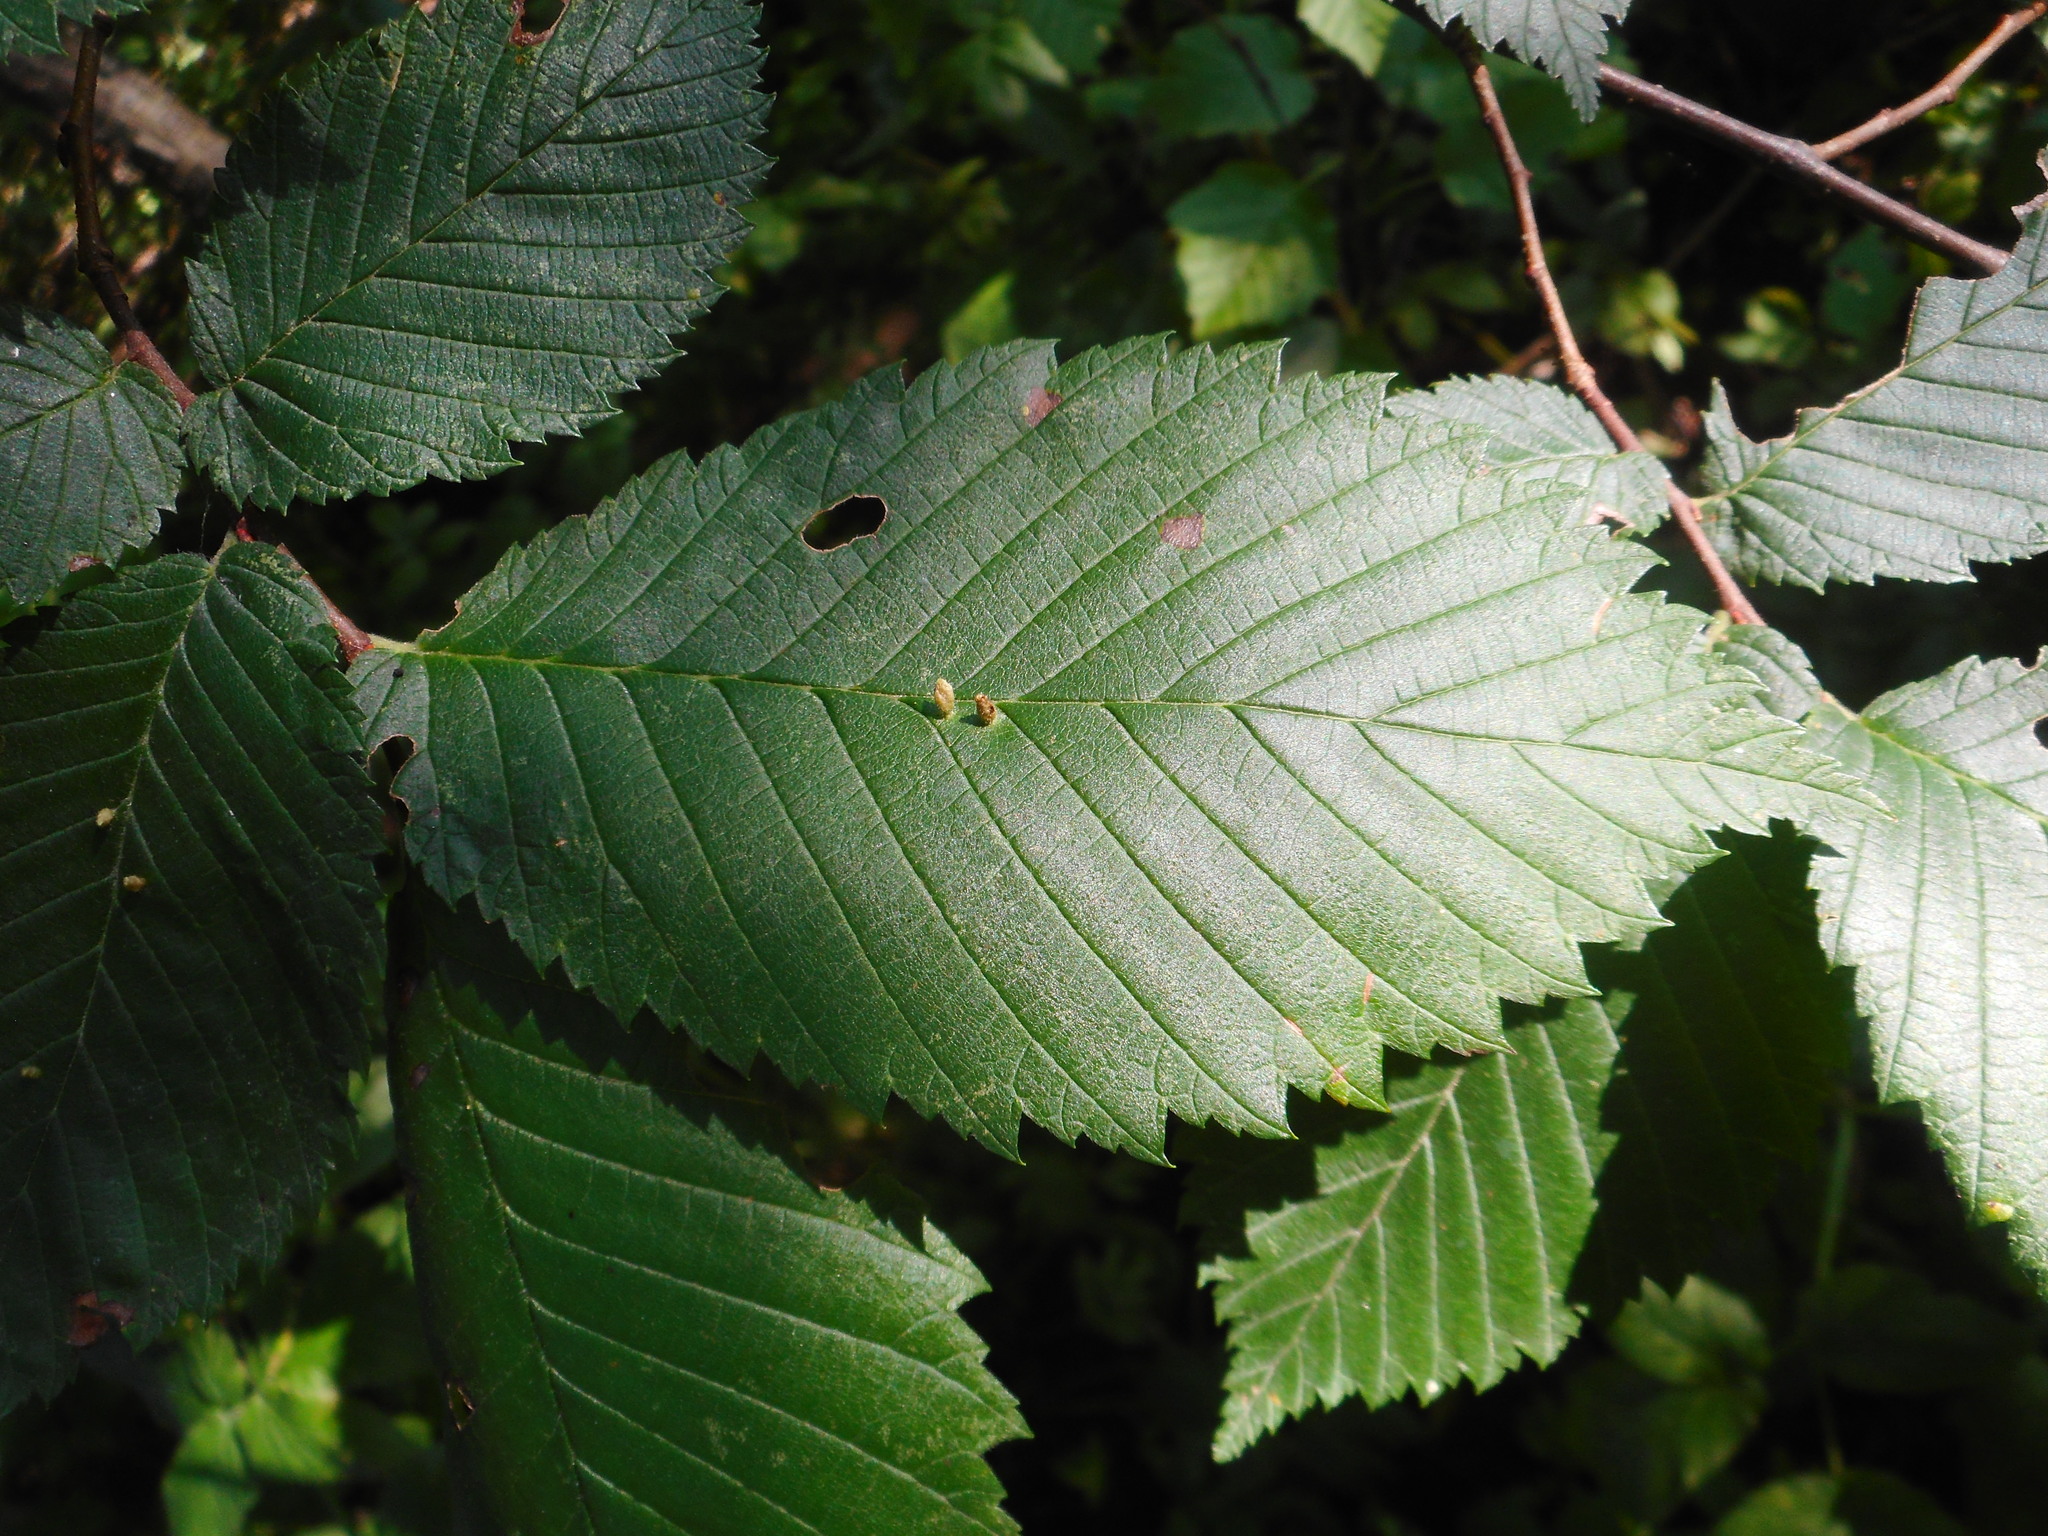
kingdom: Plantae
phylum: Tracheophyta
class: Magnoliopsida
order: Rosales
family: Ulmaceae
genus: Ulmus
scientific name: Ulmus laevis
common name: European white-elm
